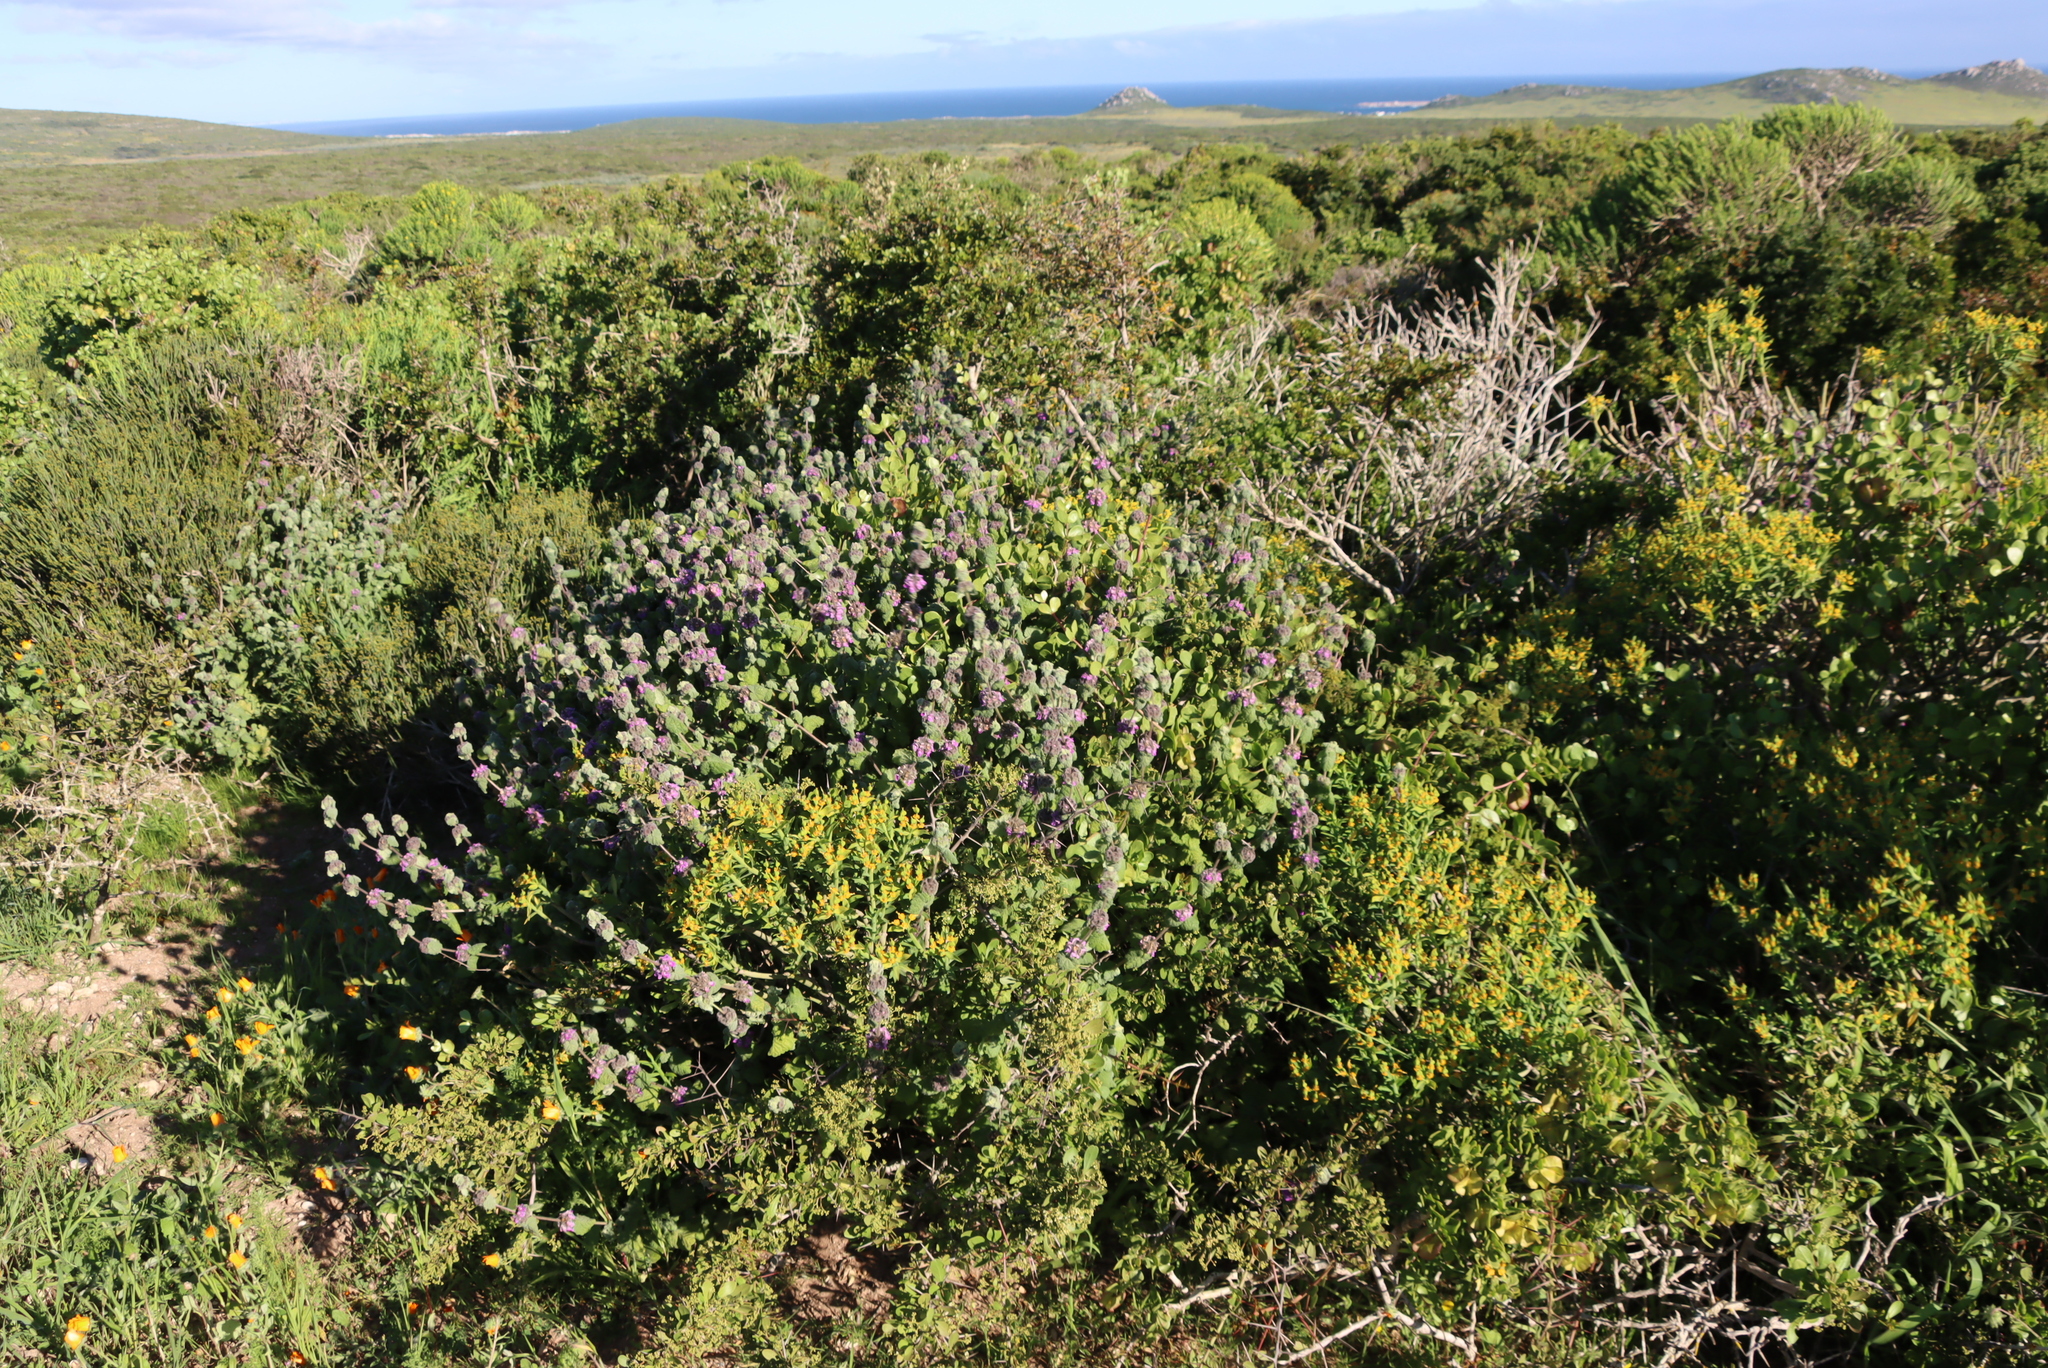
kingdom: Plantae
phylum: Tracheophyta
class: Magnoliopsida
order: Lamiales
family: Lamiaceae
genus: Pseudodictamnus
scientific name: Pseudodictamnus africanus
